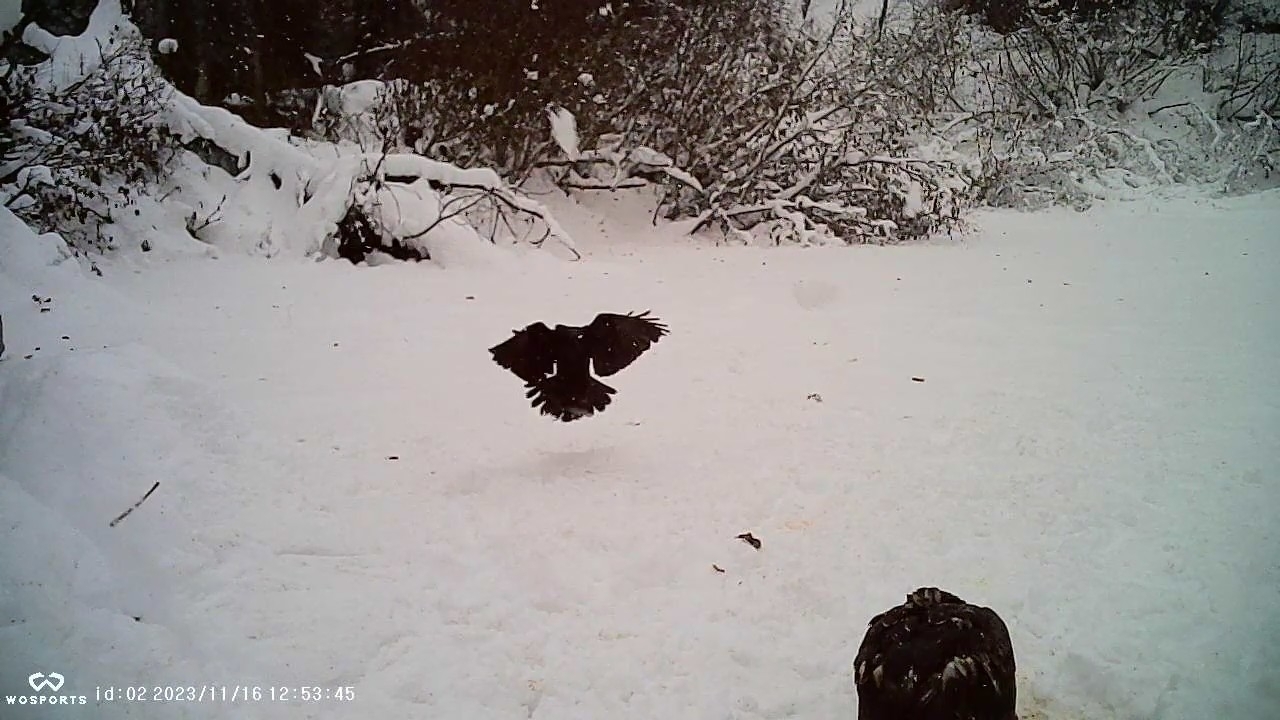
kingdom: Animalia
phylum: Chordata
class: Aves
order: Passeriformes
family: Corvidae
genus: Corvus
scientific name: Corvus corax
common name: Common raven
